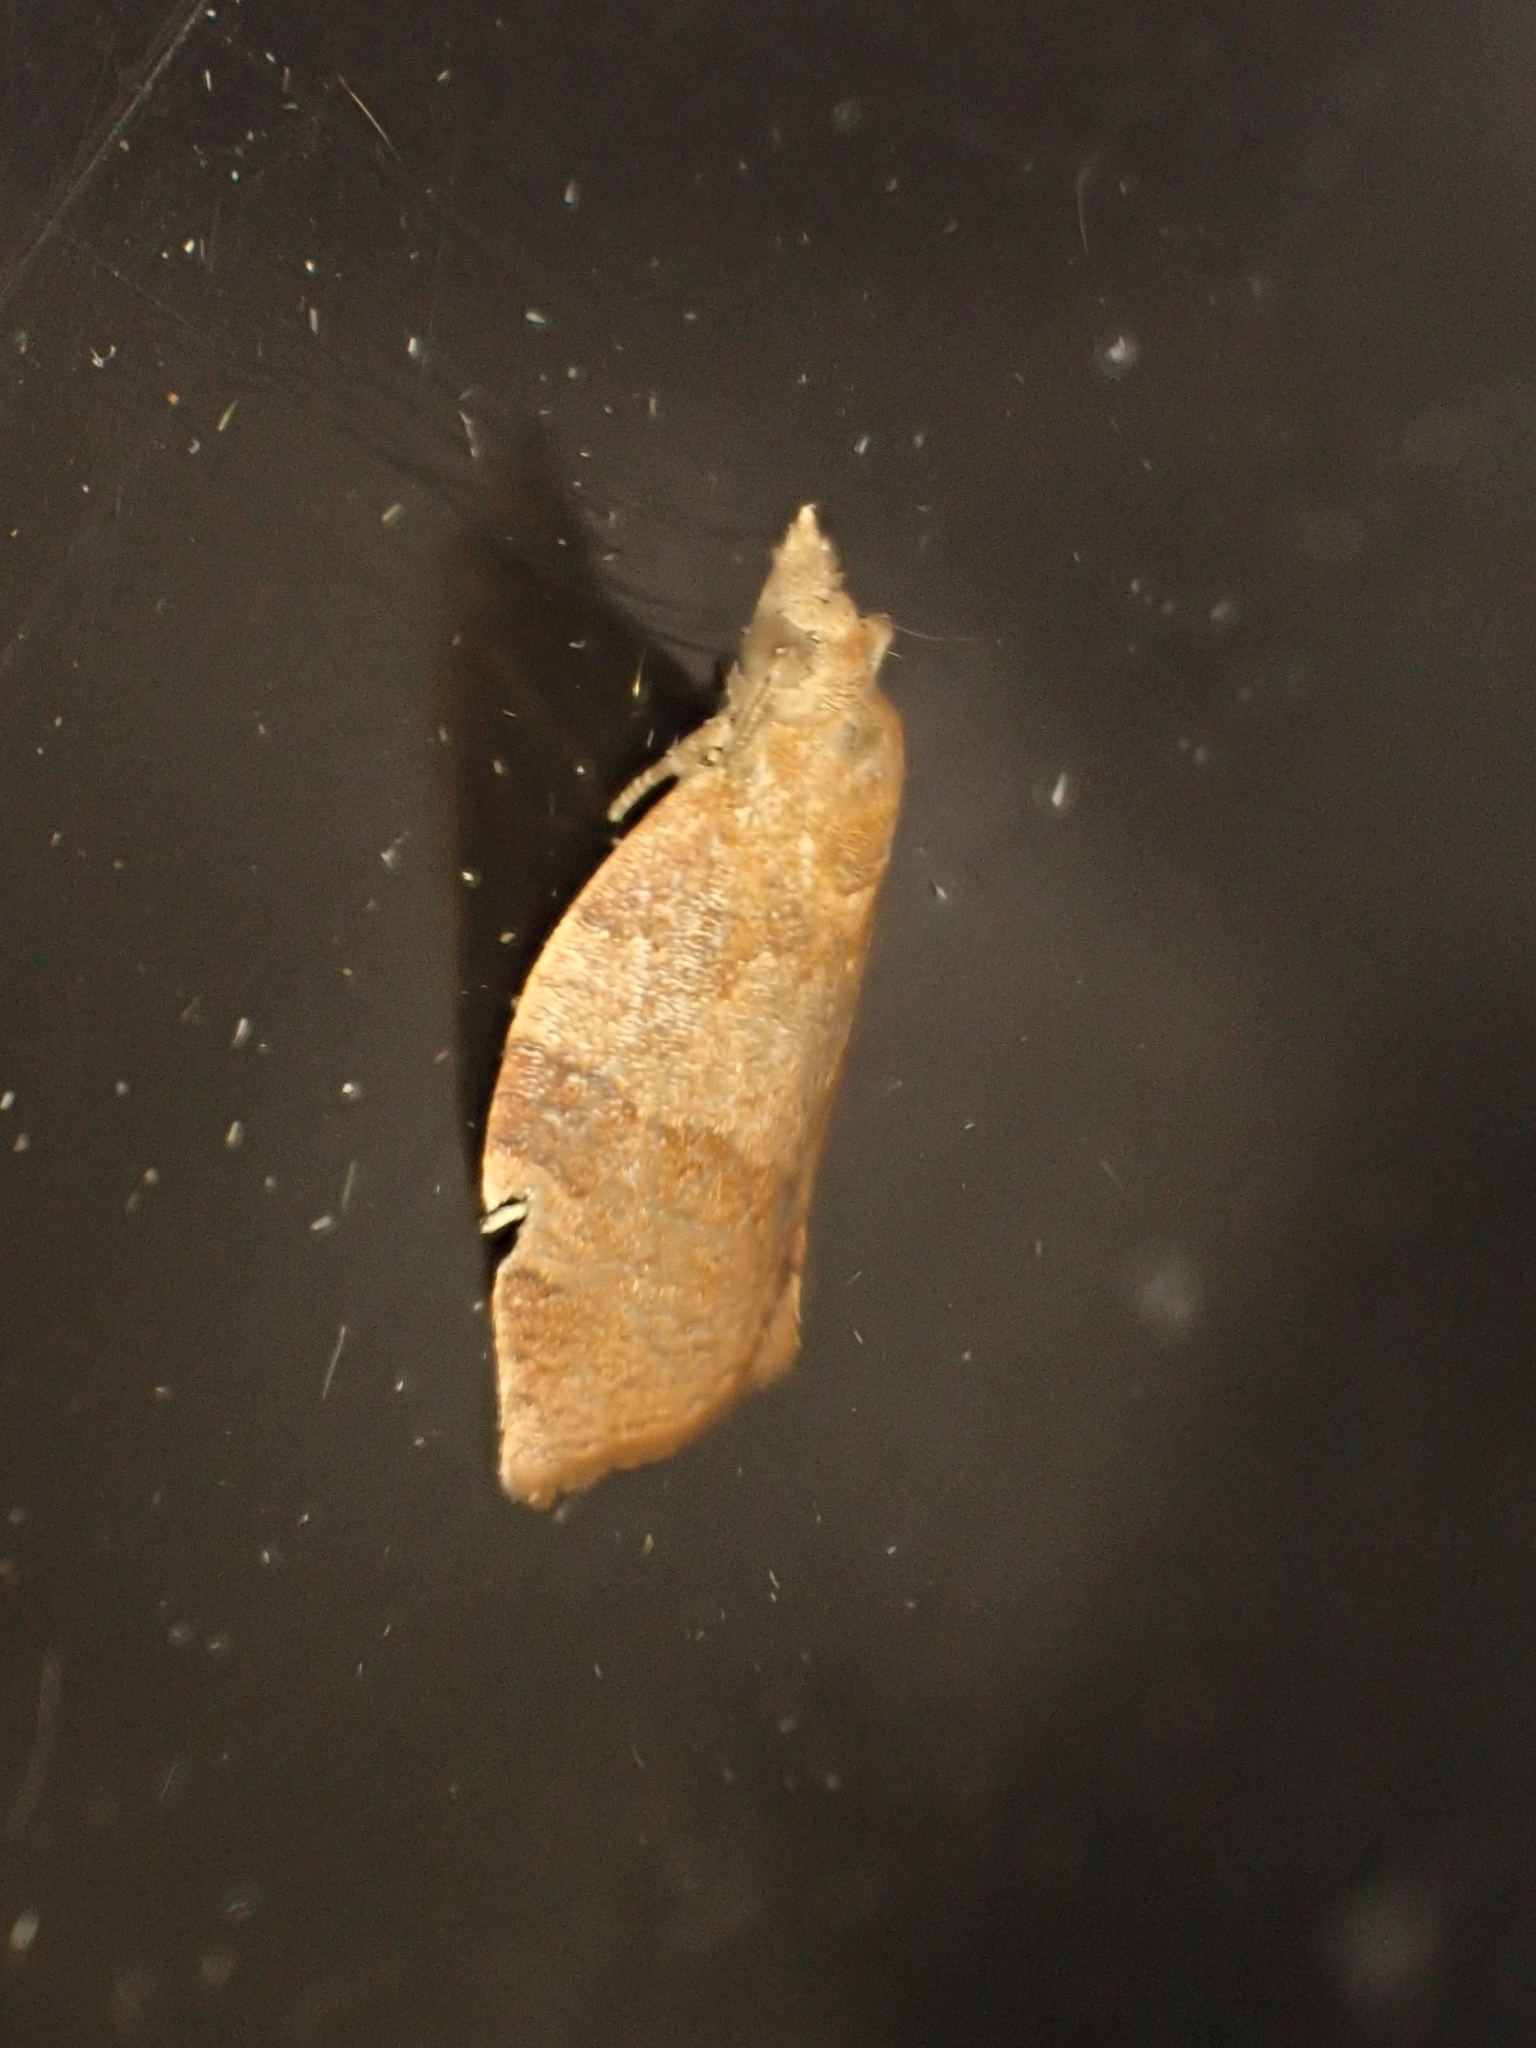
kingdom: Animalia
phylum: Arthropoda
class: Insecta
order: Lepidoptera
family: Tortricidae
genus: Pandemis
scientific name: Pandemis heparana
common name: Dark fruit-tree tortrix
